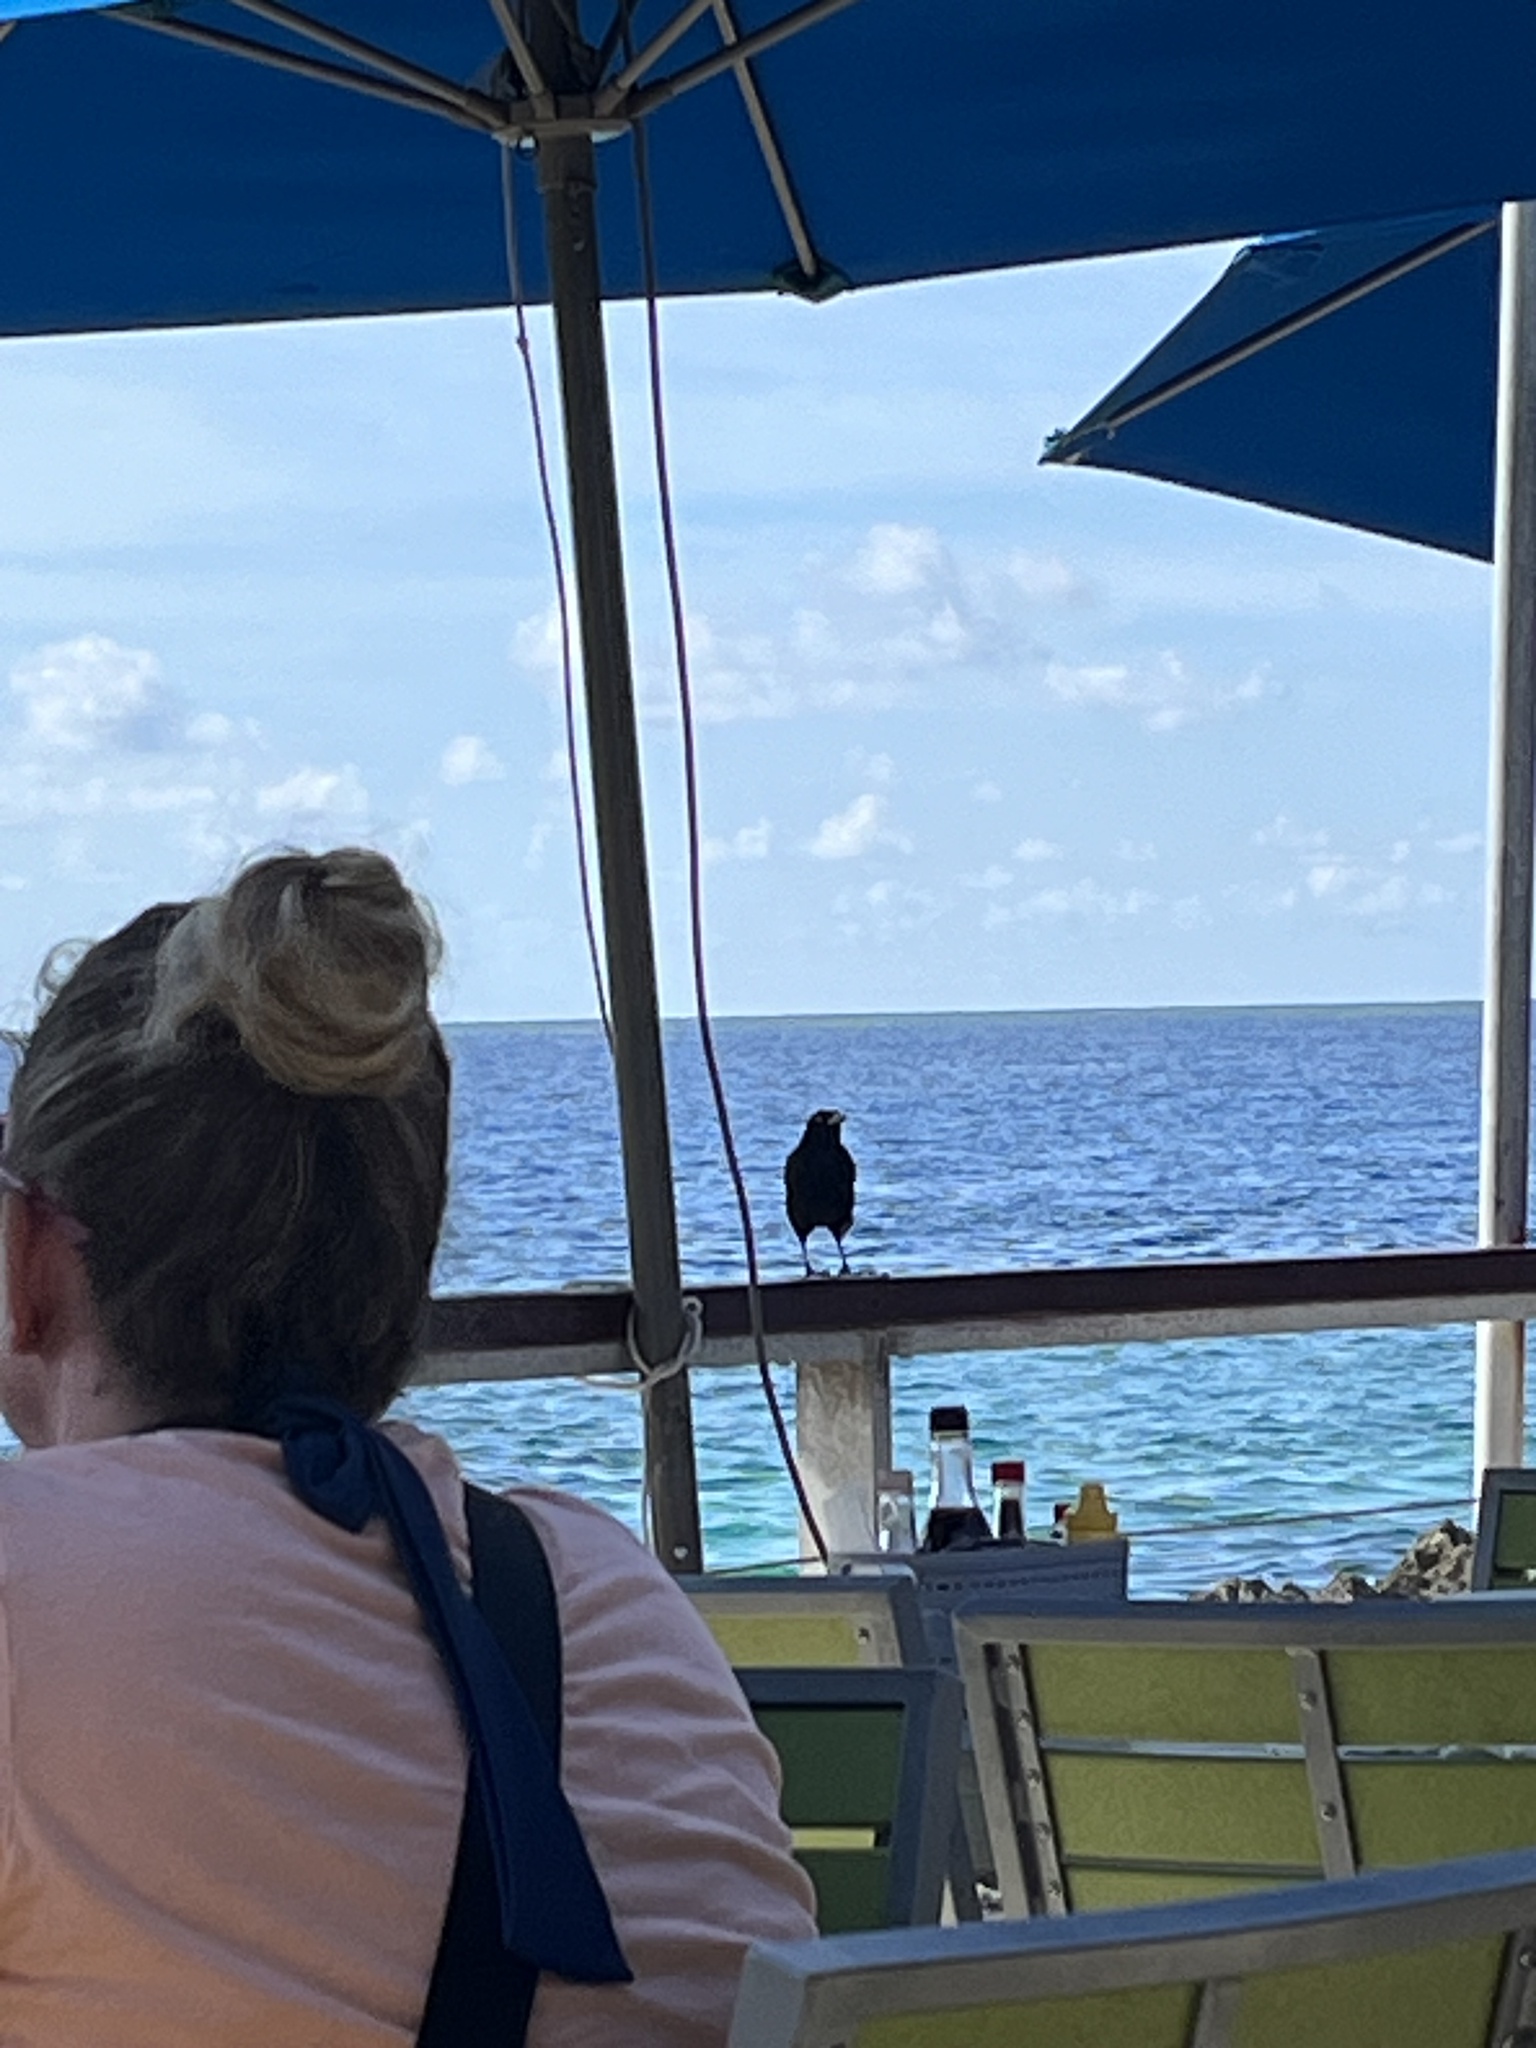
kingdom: Animalia
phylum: Chordata
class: Aves
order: Passeriformes
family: Icteridae
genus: Quiscalus
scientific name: Quiscalus niger
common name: Greater antillean grackle
